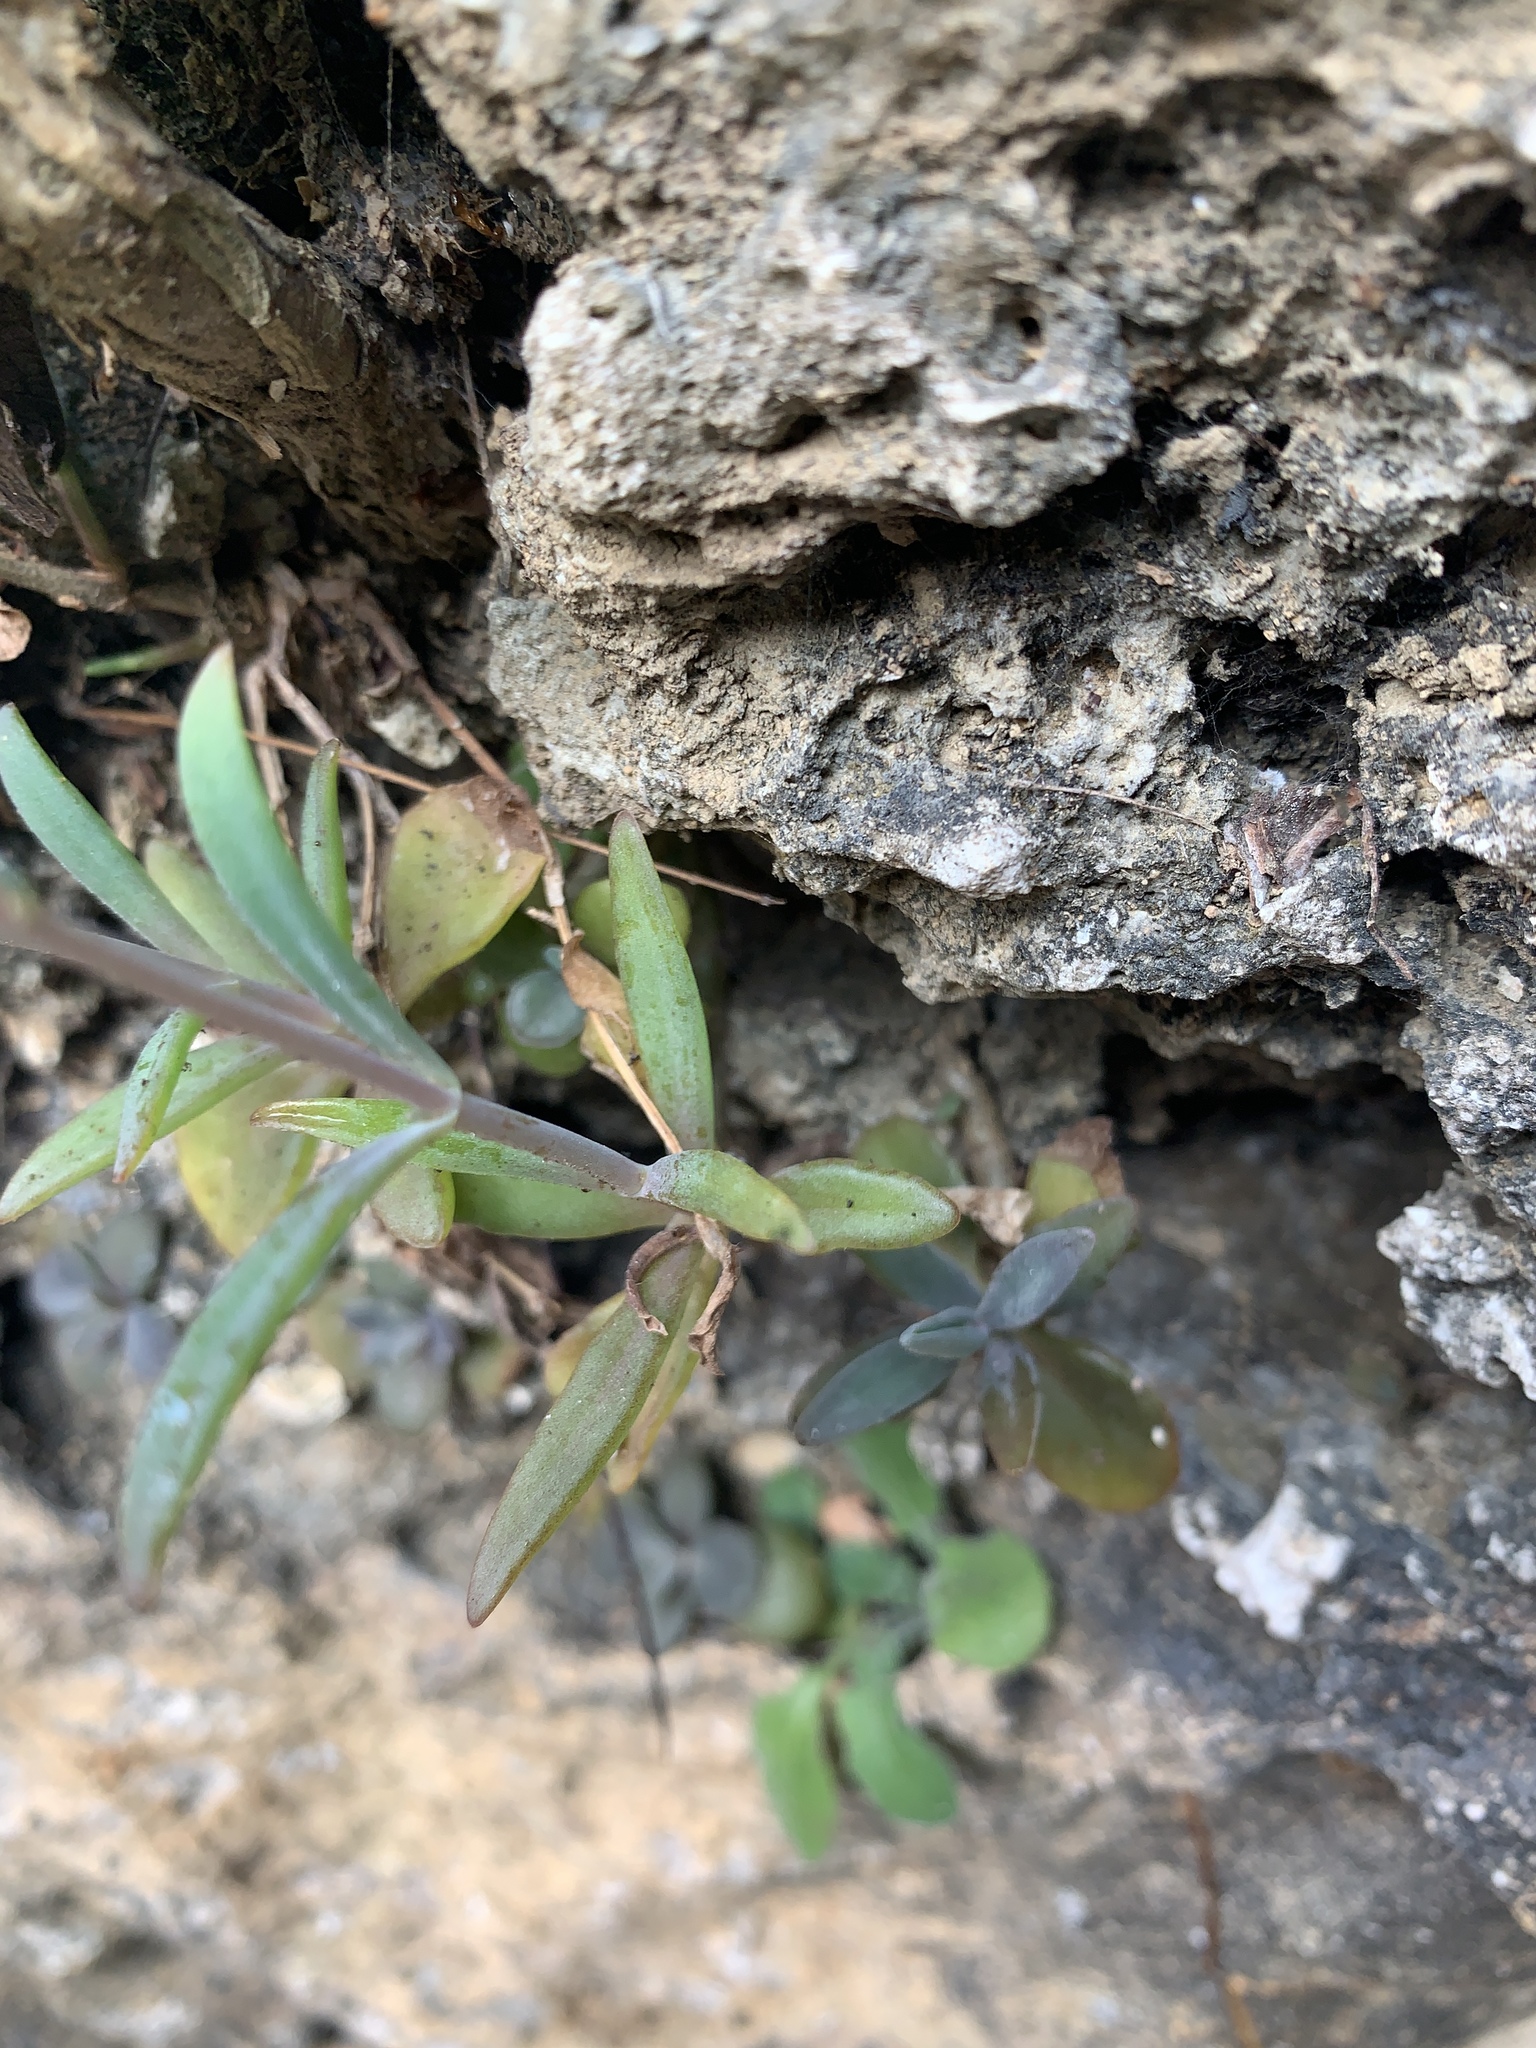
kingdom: Plantae
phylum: Tracheophyta
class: Magnoliopsida
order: Saxifragales
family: Crassulaceae
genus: Kalanchoe
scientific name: Kalanchoe ceratophylla
